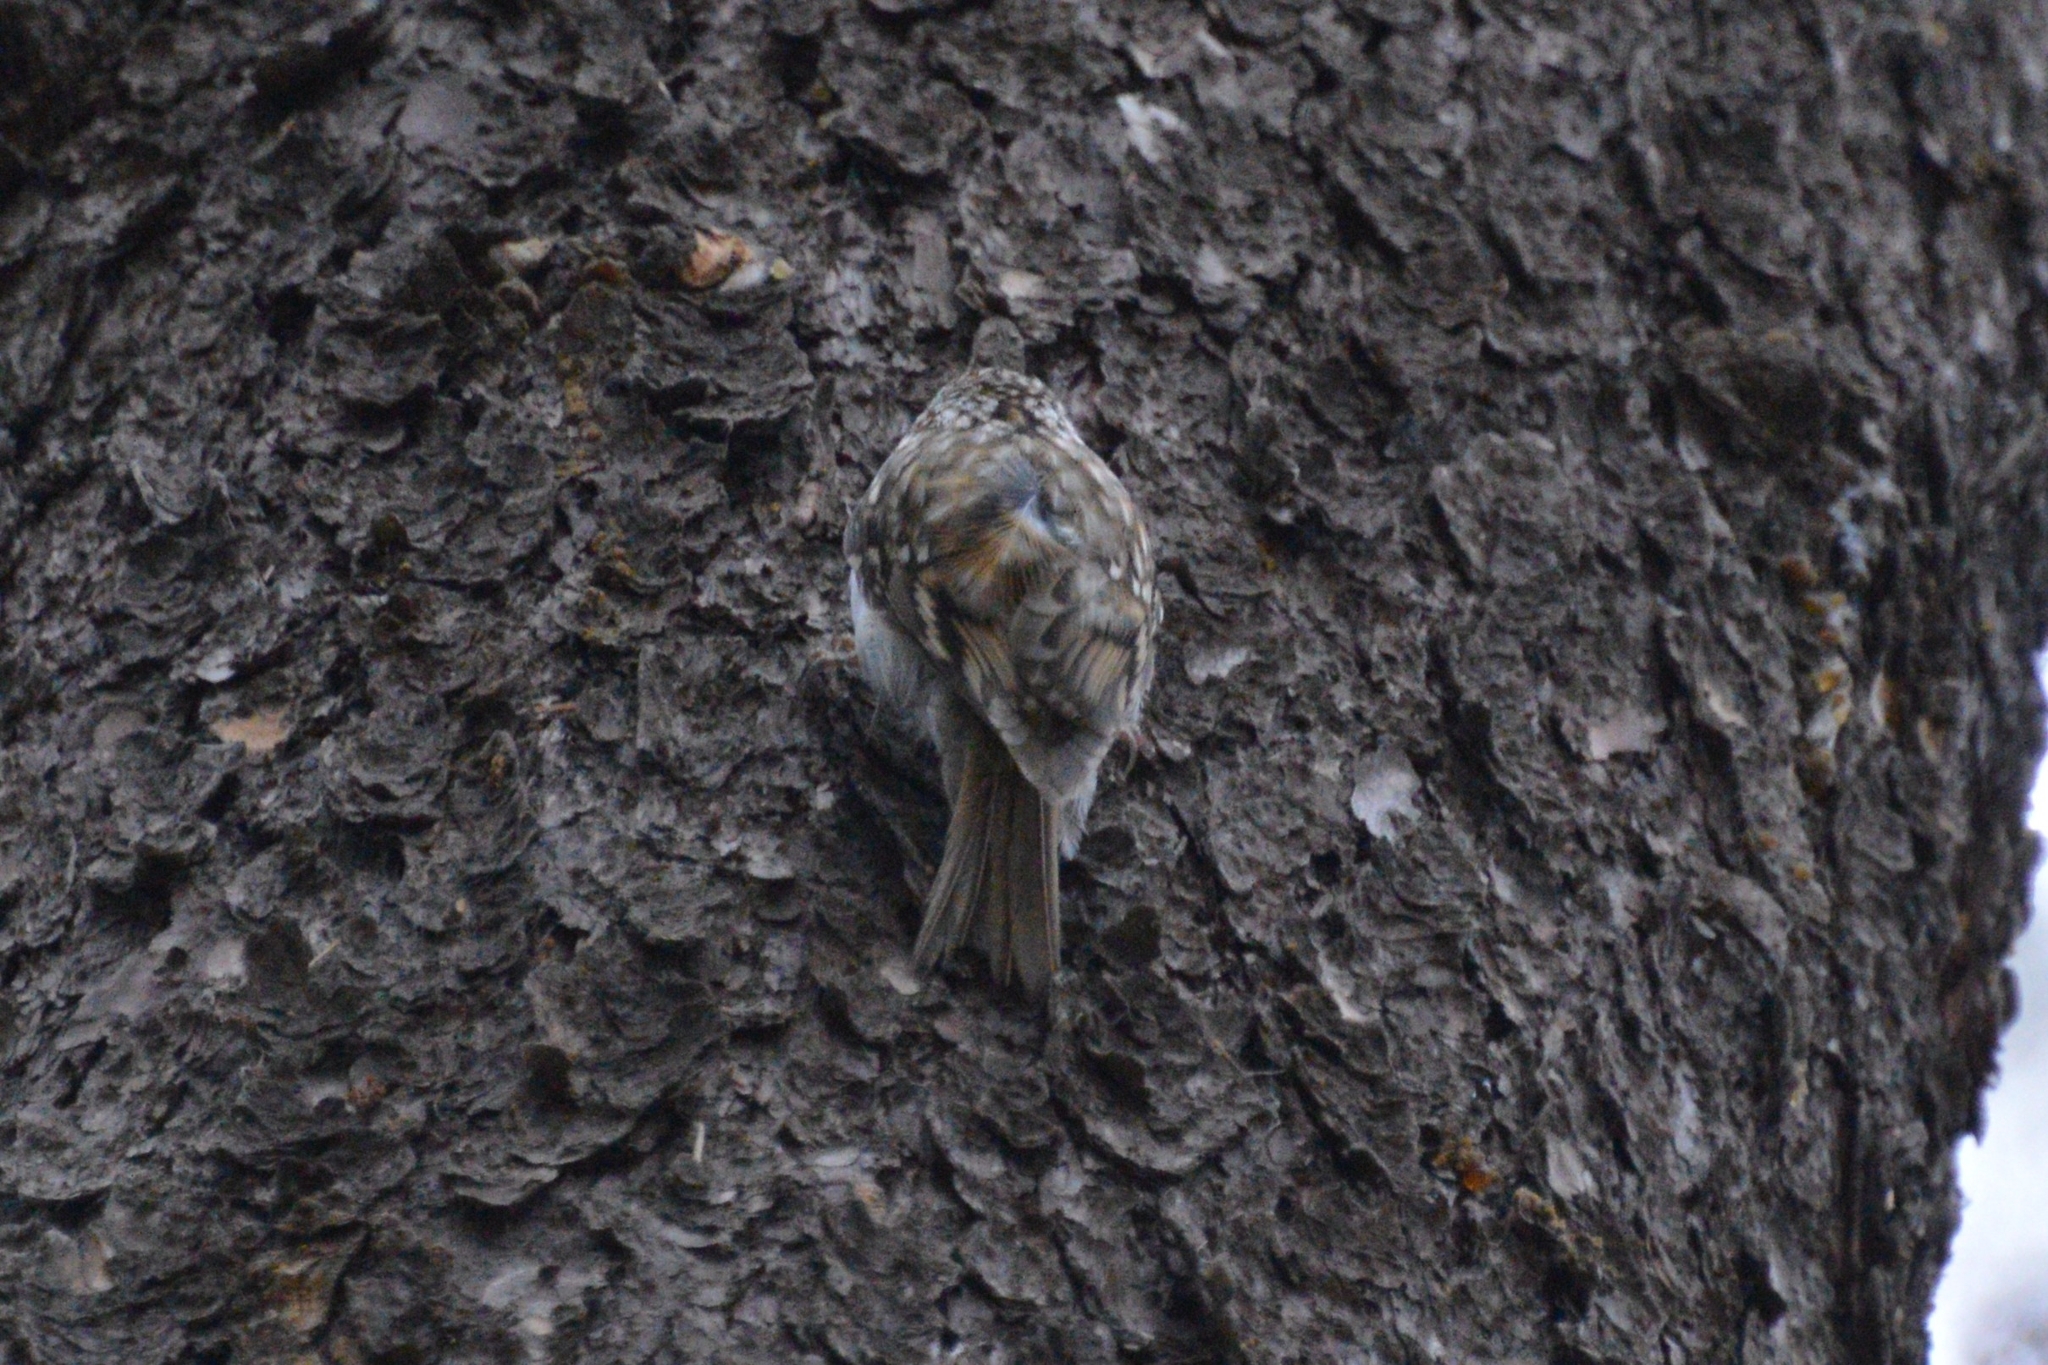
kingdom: Animalia
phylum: Chordata
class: Aves
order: Passeriformes
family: Certhiidae
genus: Certhia
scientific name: Certhia familiaris
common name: Eurasian treecreeper
